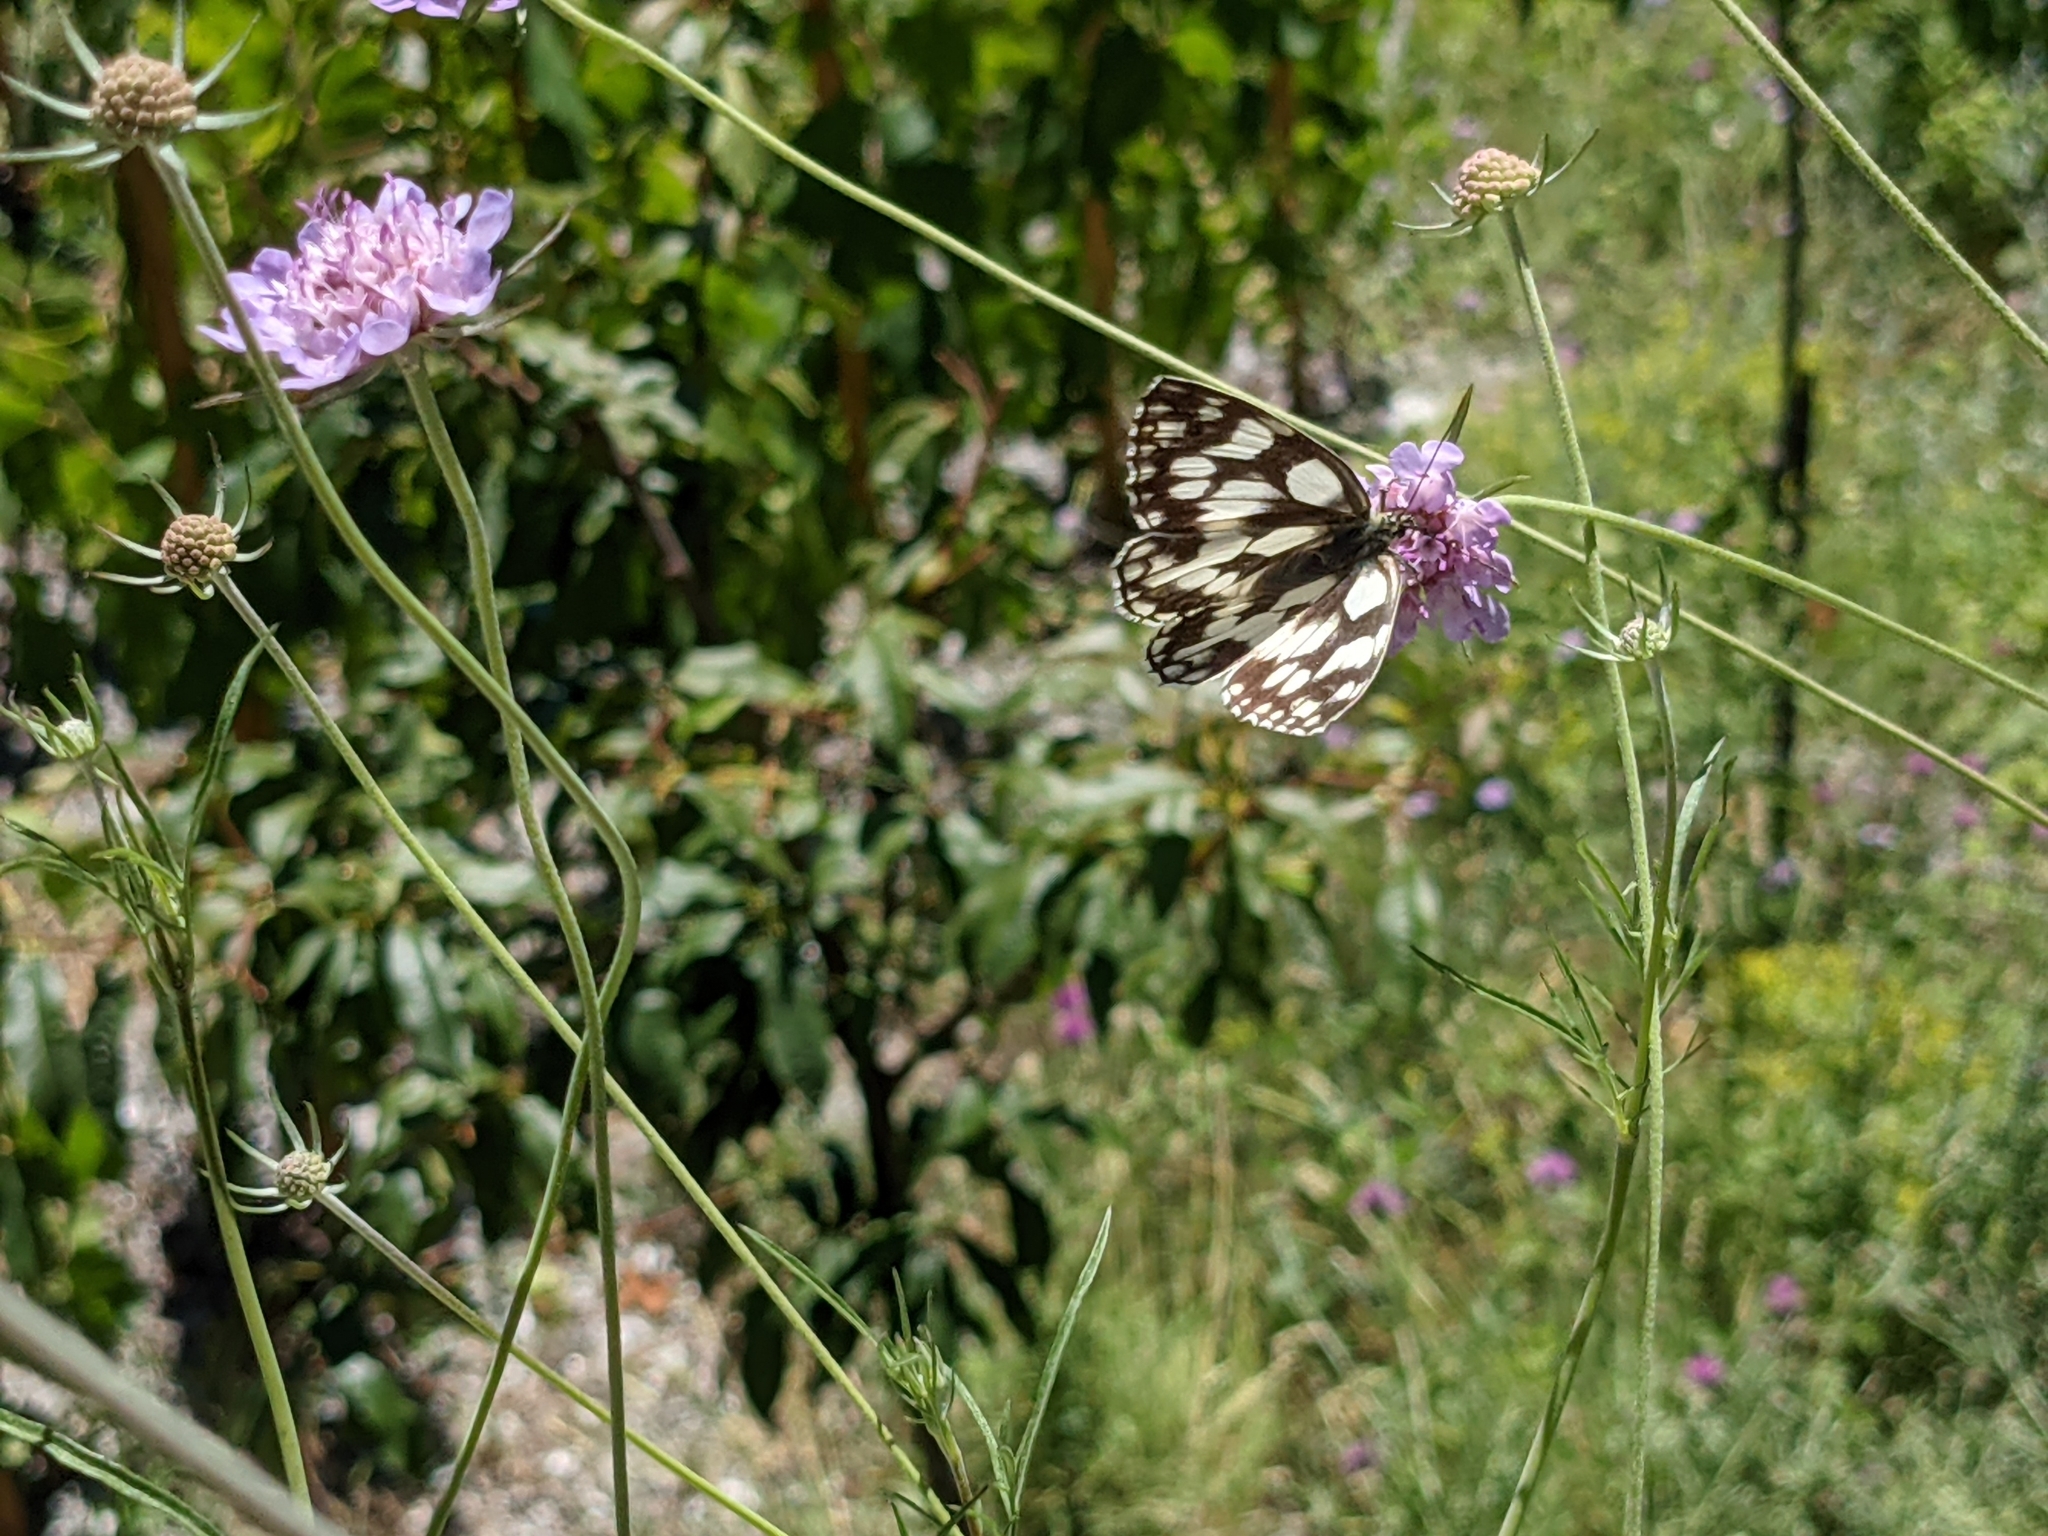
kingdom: Animalia
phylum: Arthropoda
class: Insecta
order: Lepidoptera
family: Nymphalidae
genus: Melanargia
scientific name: Melanargia galathea
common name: Marbled white
